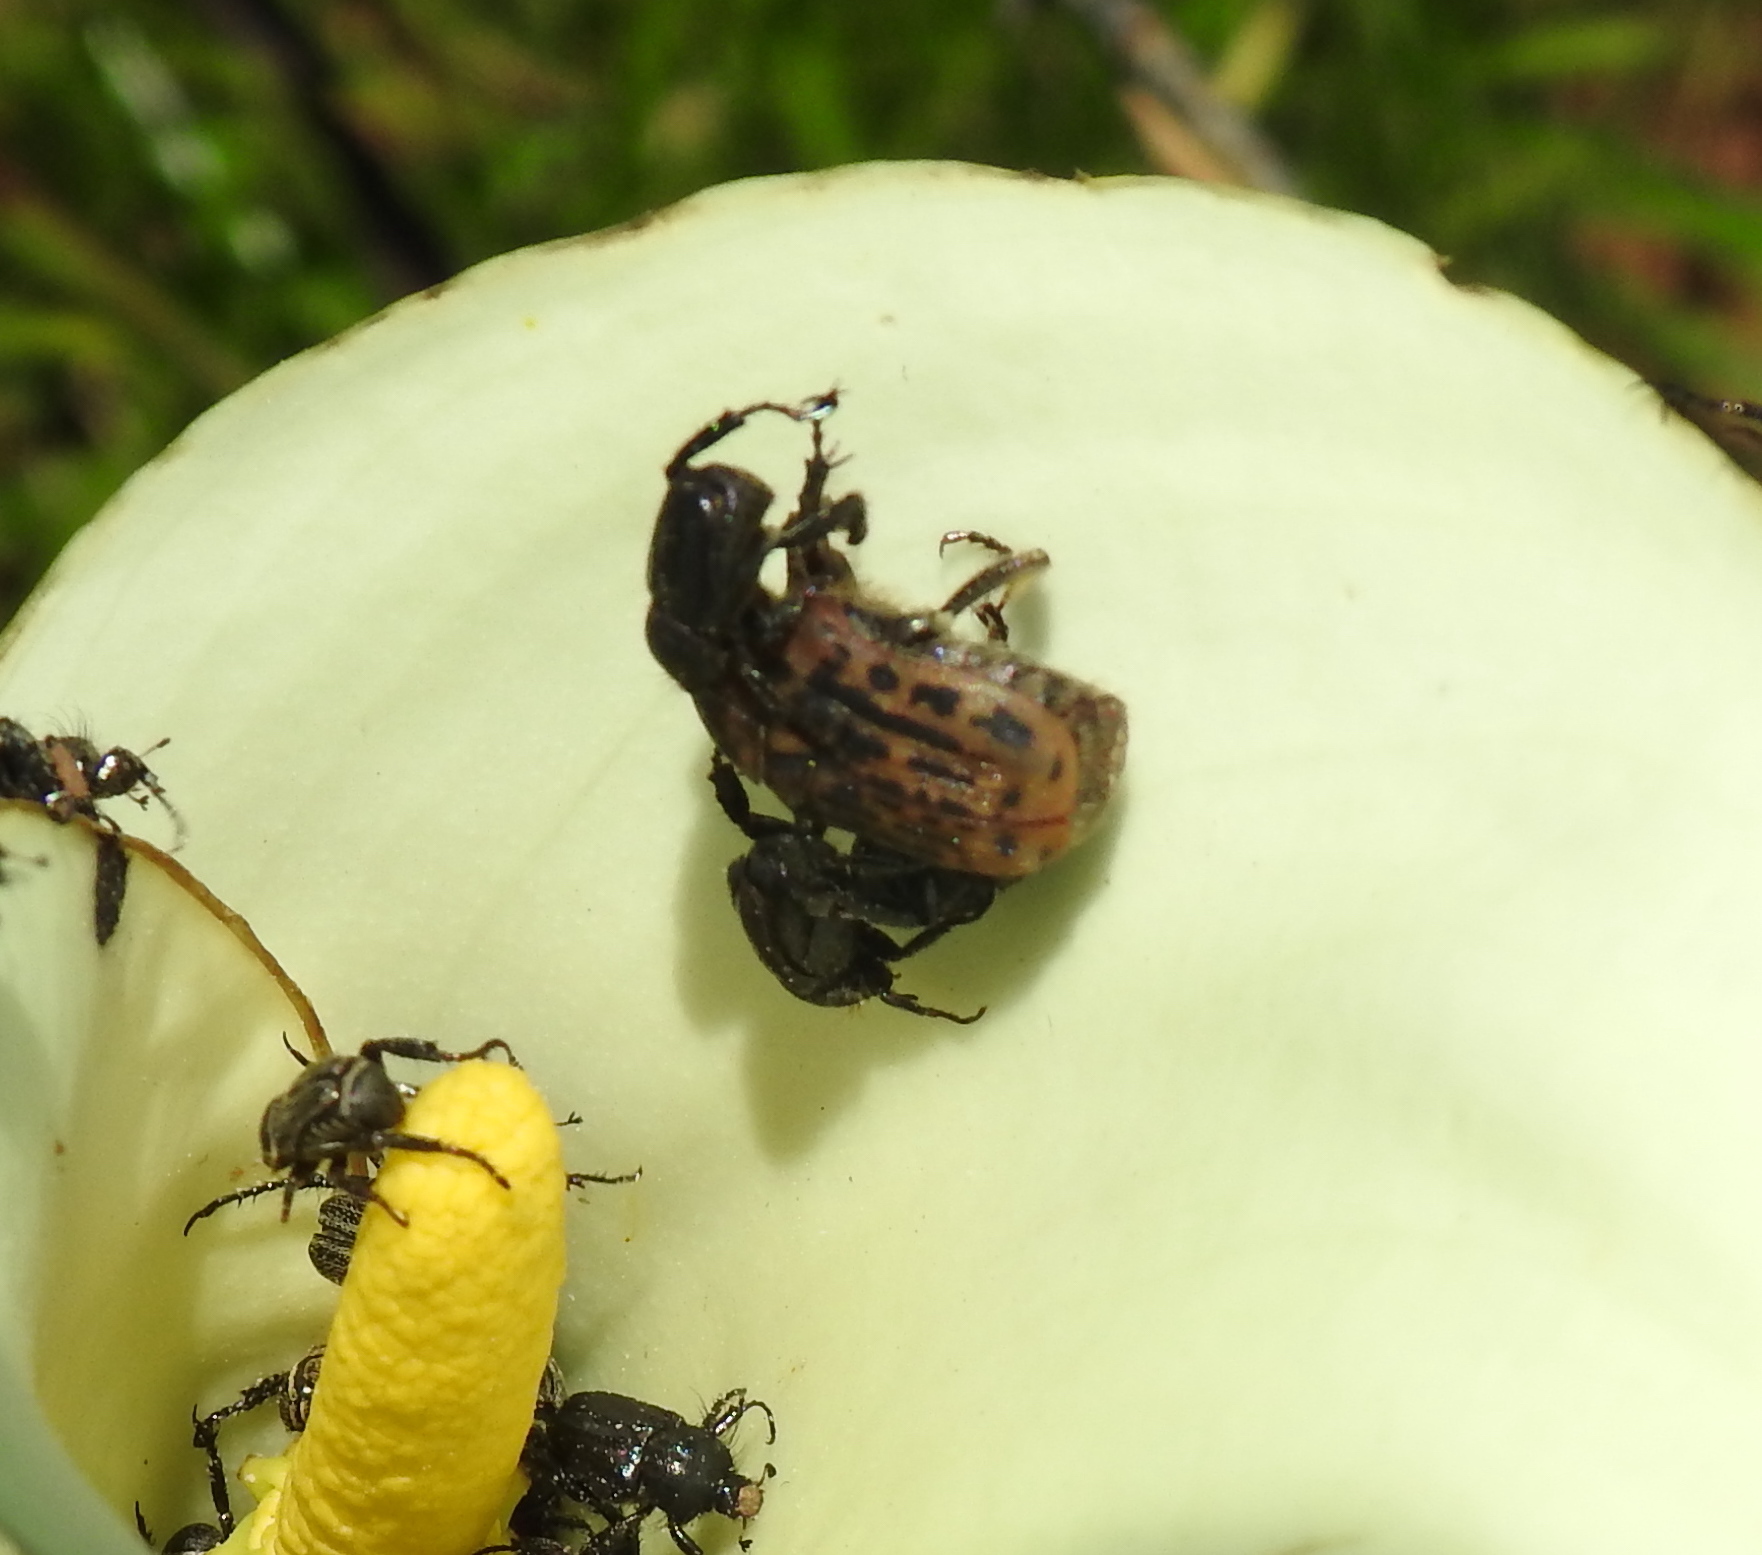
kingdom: Animalia
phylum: Arthropoda
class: Insecta
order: Coleoptera
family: Scarabaeidae
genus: Atrichelaphinis
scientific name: Atrichelaphinis tigrina
